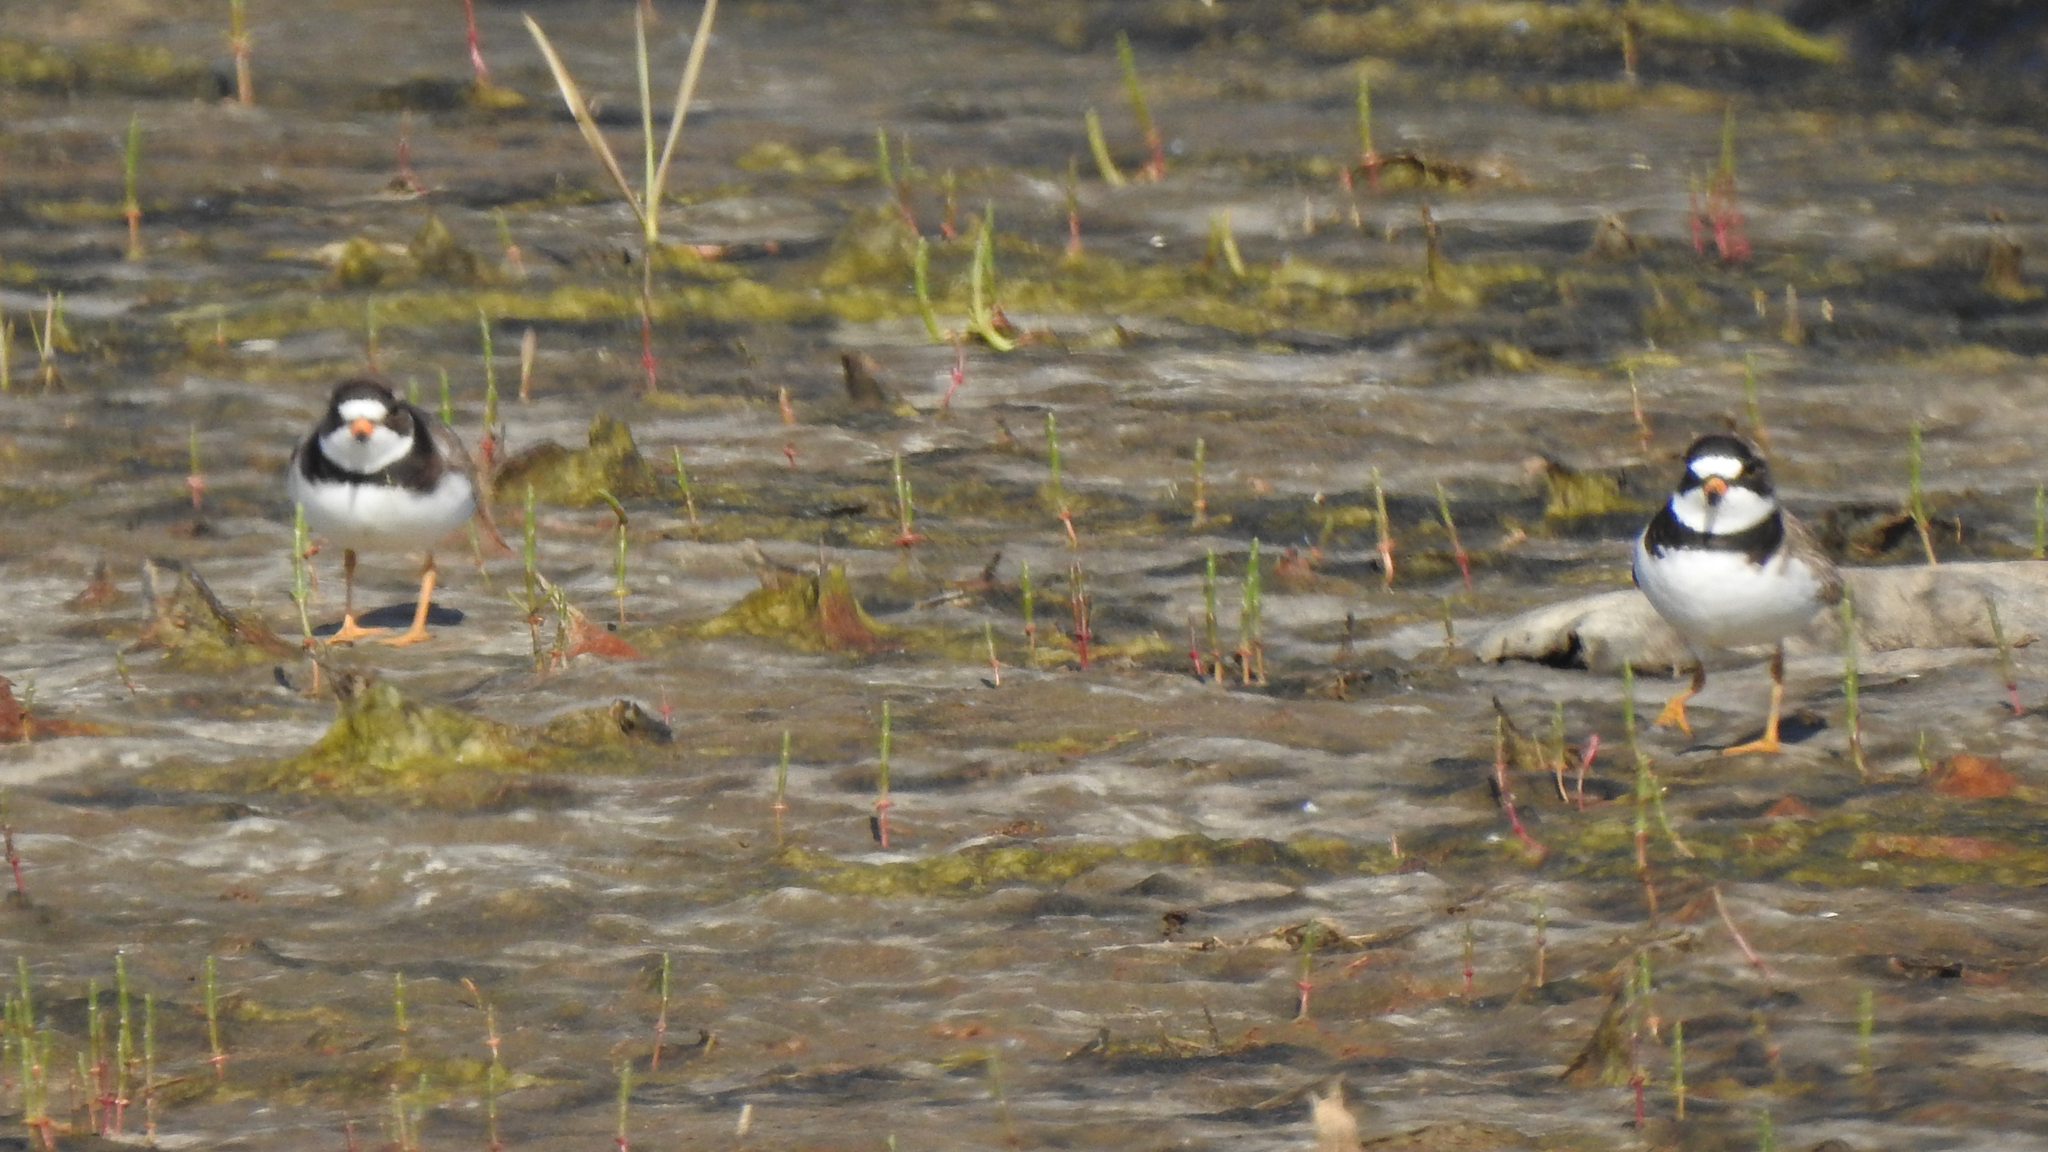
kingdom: Animalia
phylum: Chordata
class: Aves
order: Charadriiformes
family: Charadriidae
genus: Charadrius
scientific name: Charadrius semipalmatus
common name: Semipalmated plover
